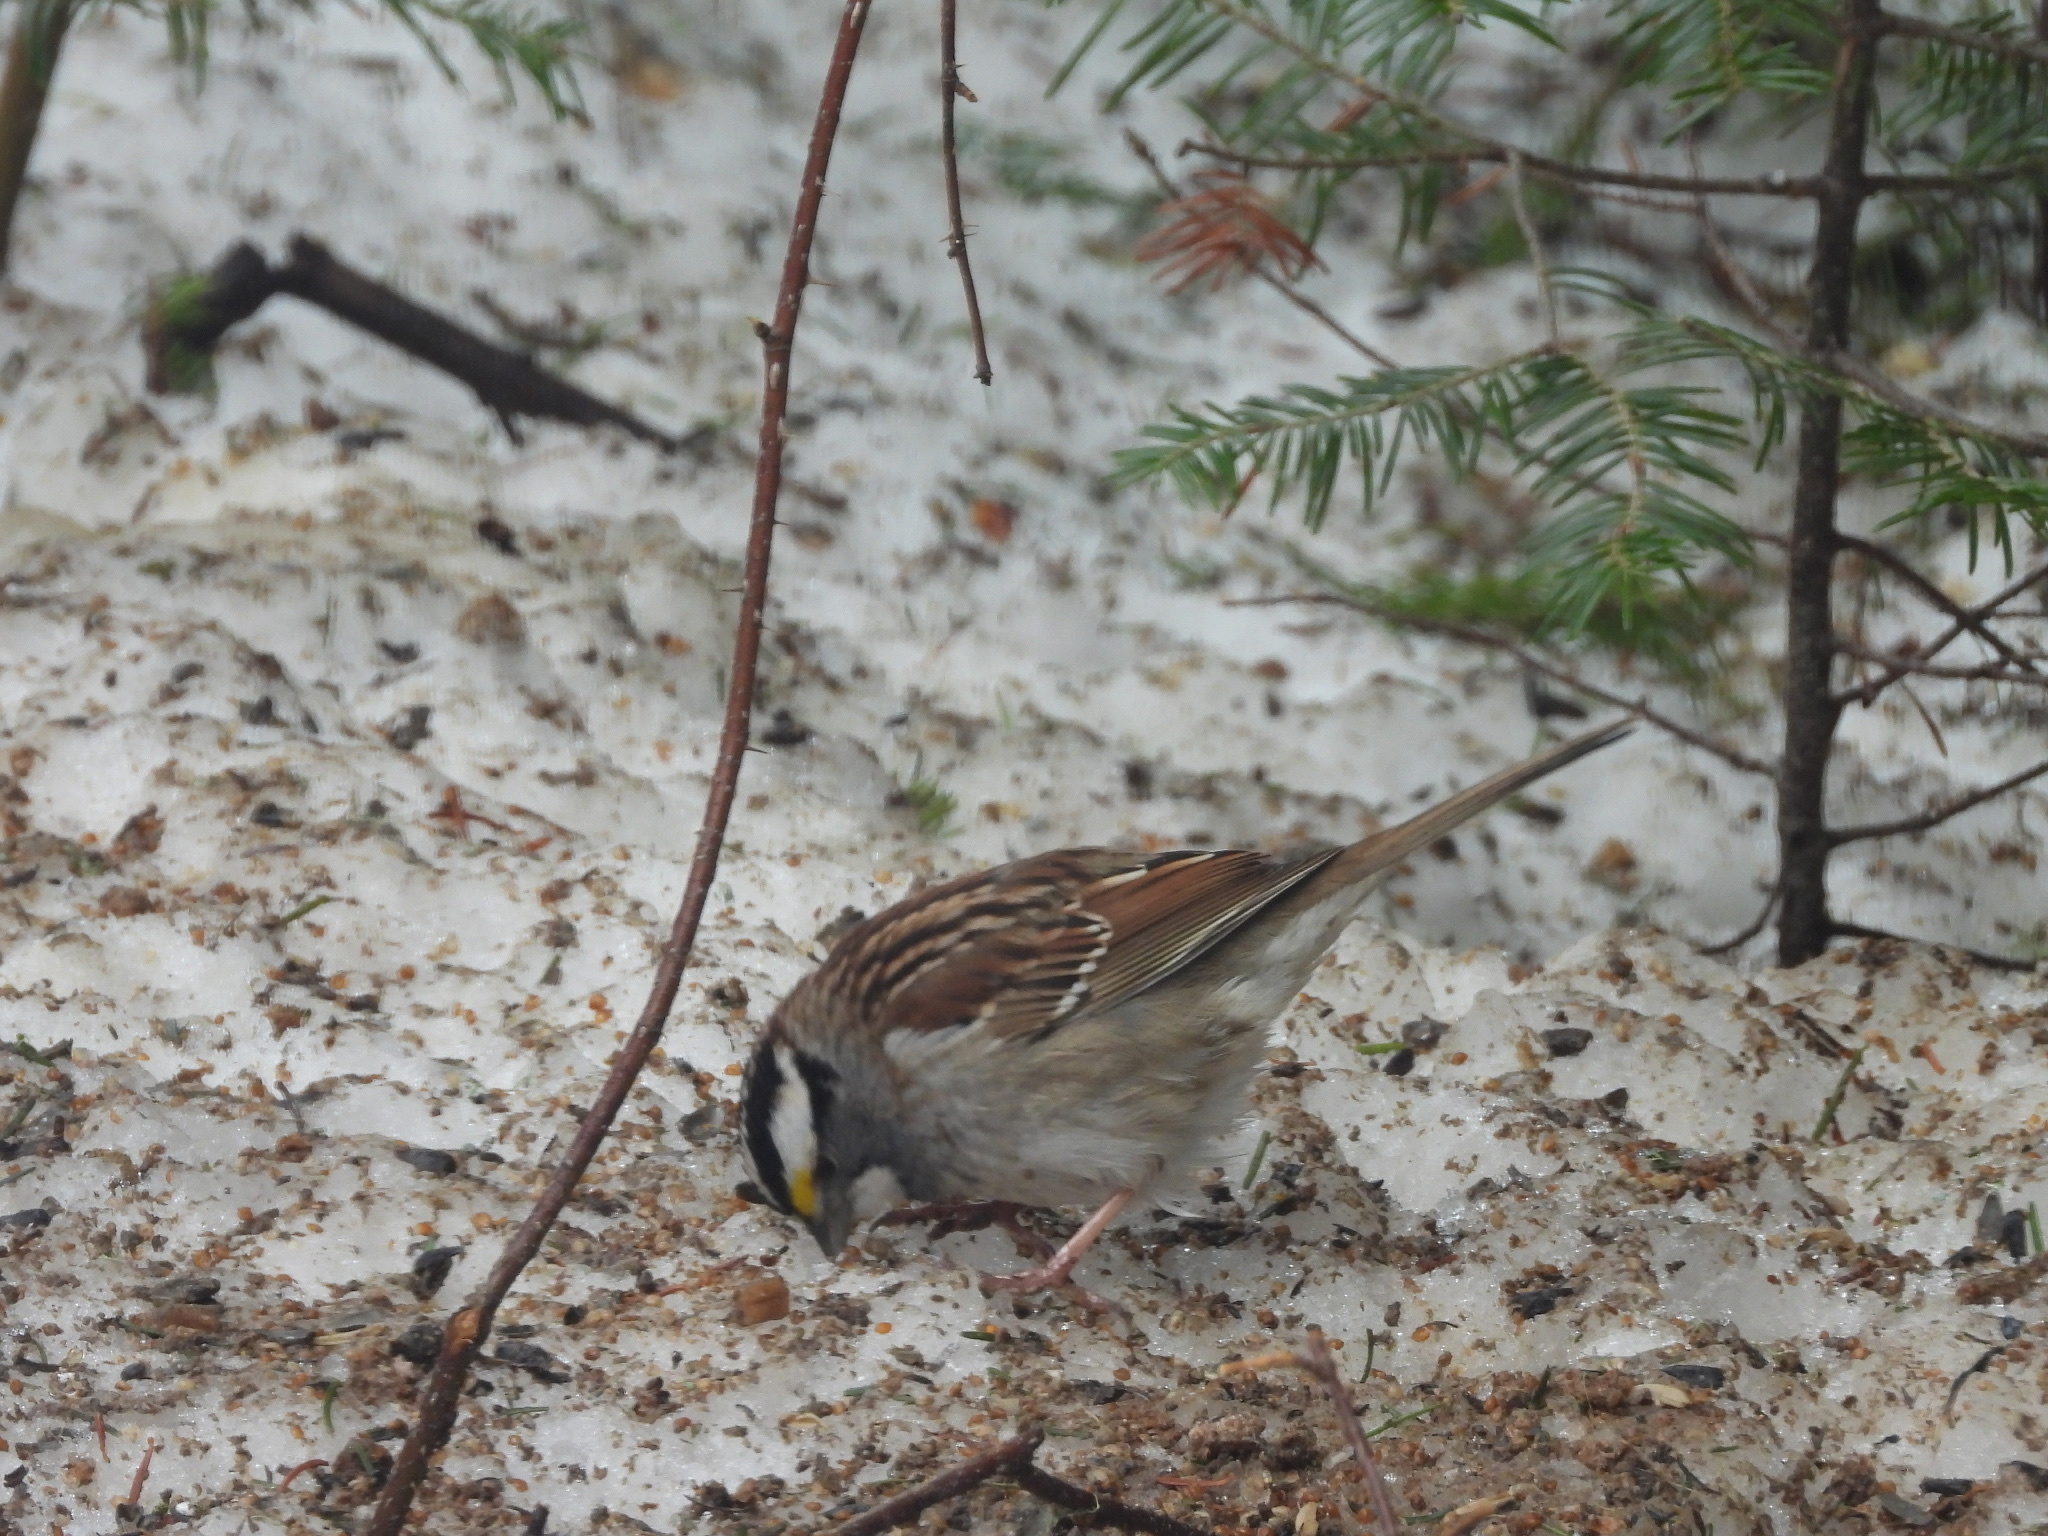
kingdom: Animalia
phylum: Chordata
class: Aves
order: Passeriformes
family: Passerellidae
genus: Zonotrichia
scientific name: Zonotrichia albicollis
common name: White-throated sparrow
